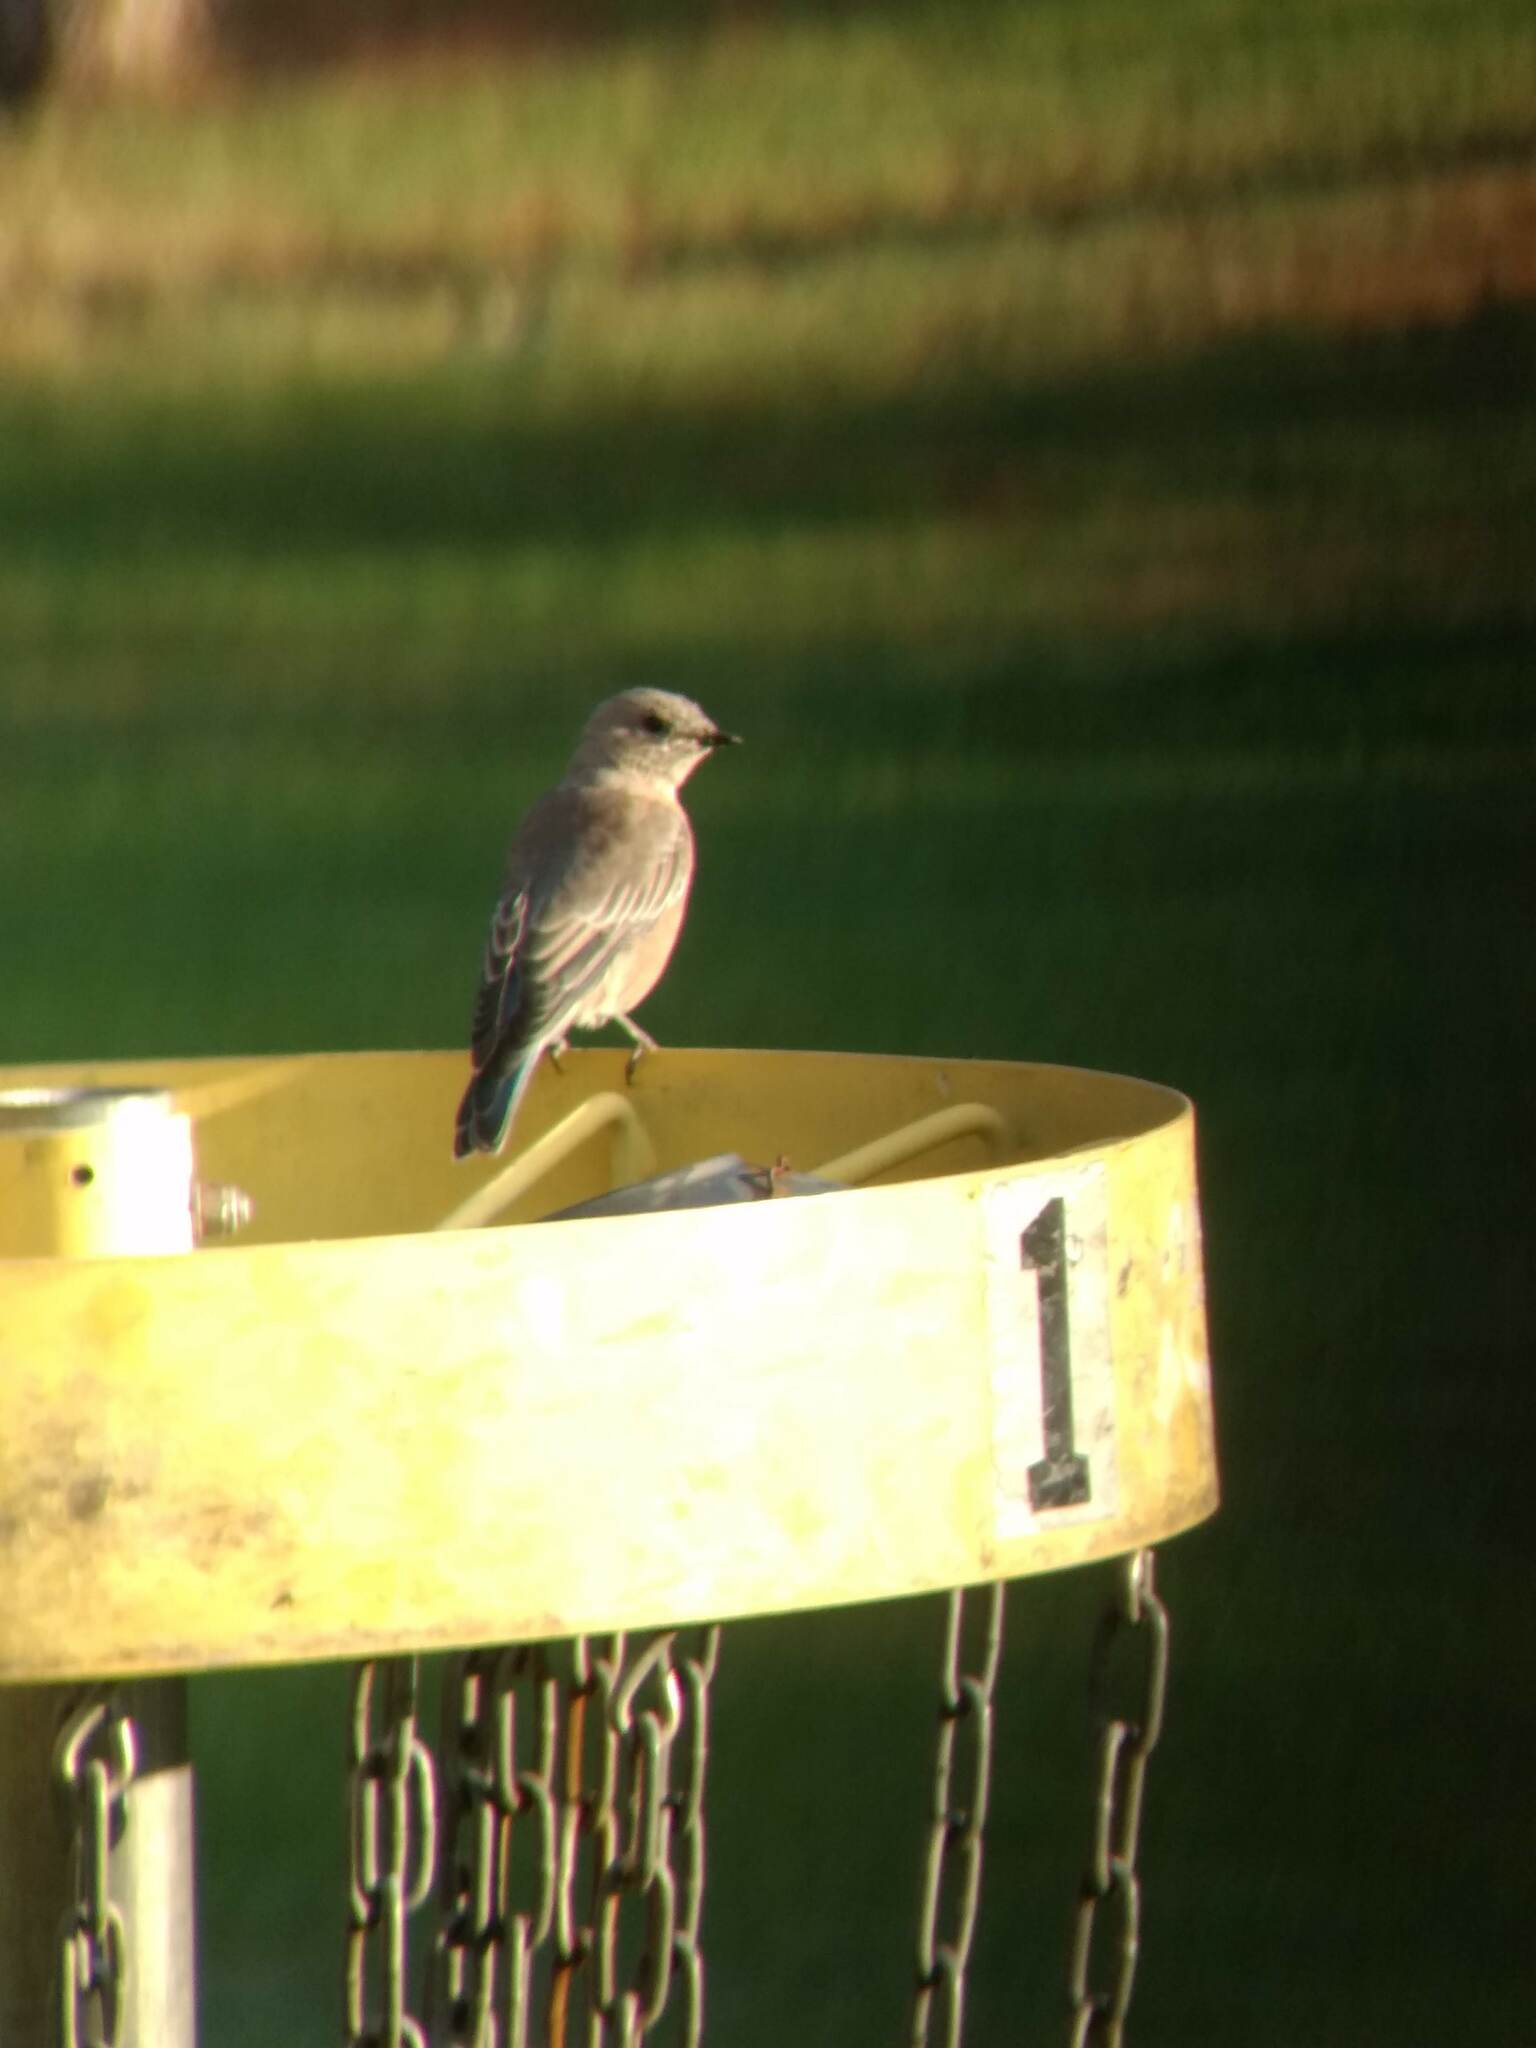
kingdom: Animalia
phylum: Chordata
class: Aves
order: Passeriformes
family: Turdidae
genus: Sialia
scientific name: Sialia mexicana
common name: Western bluebird
